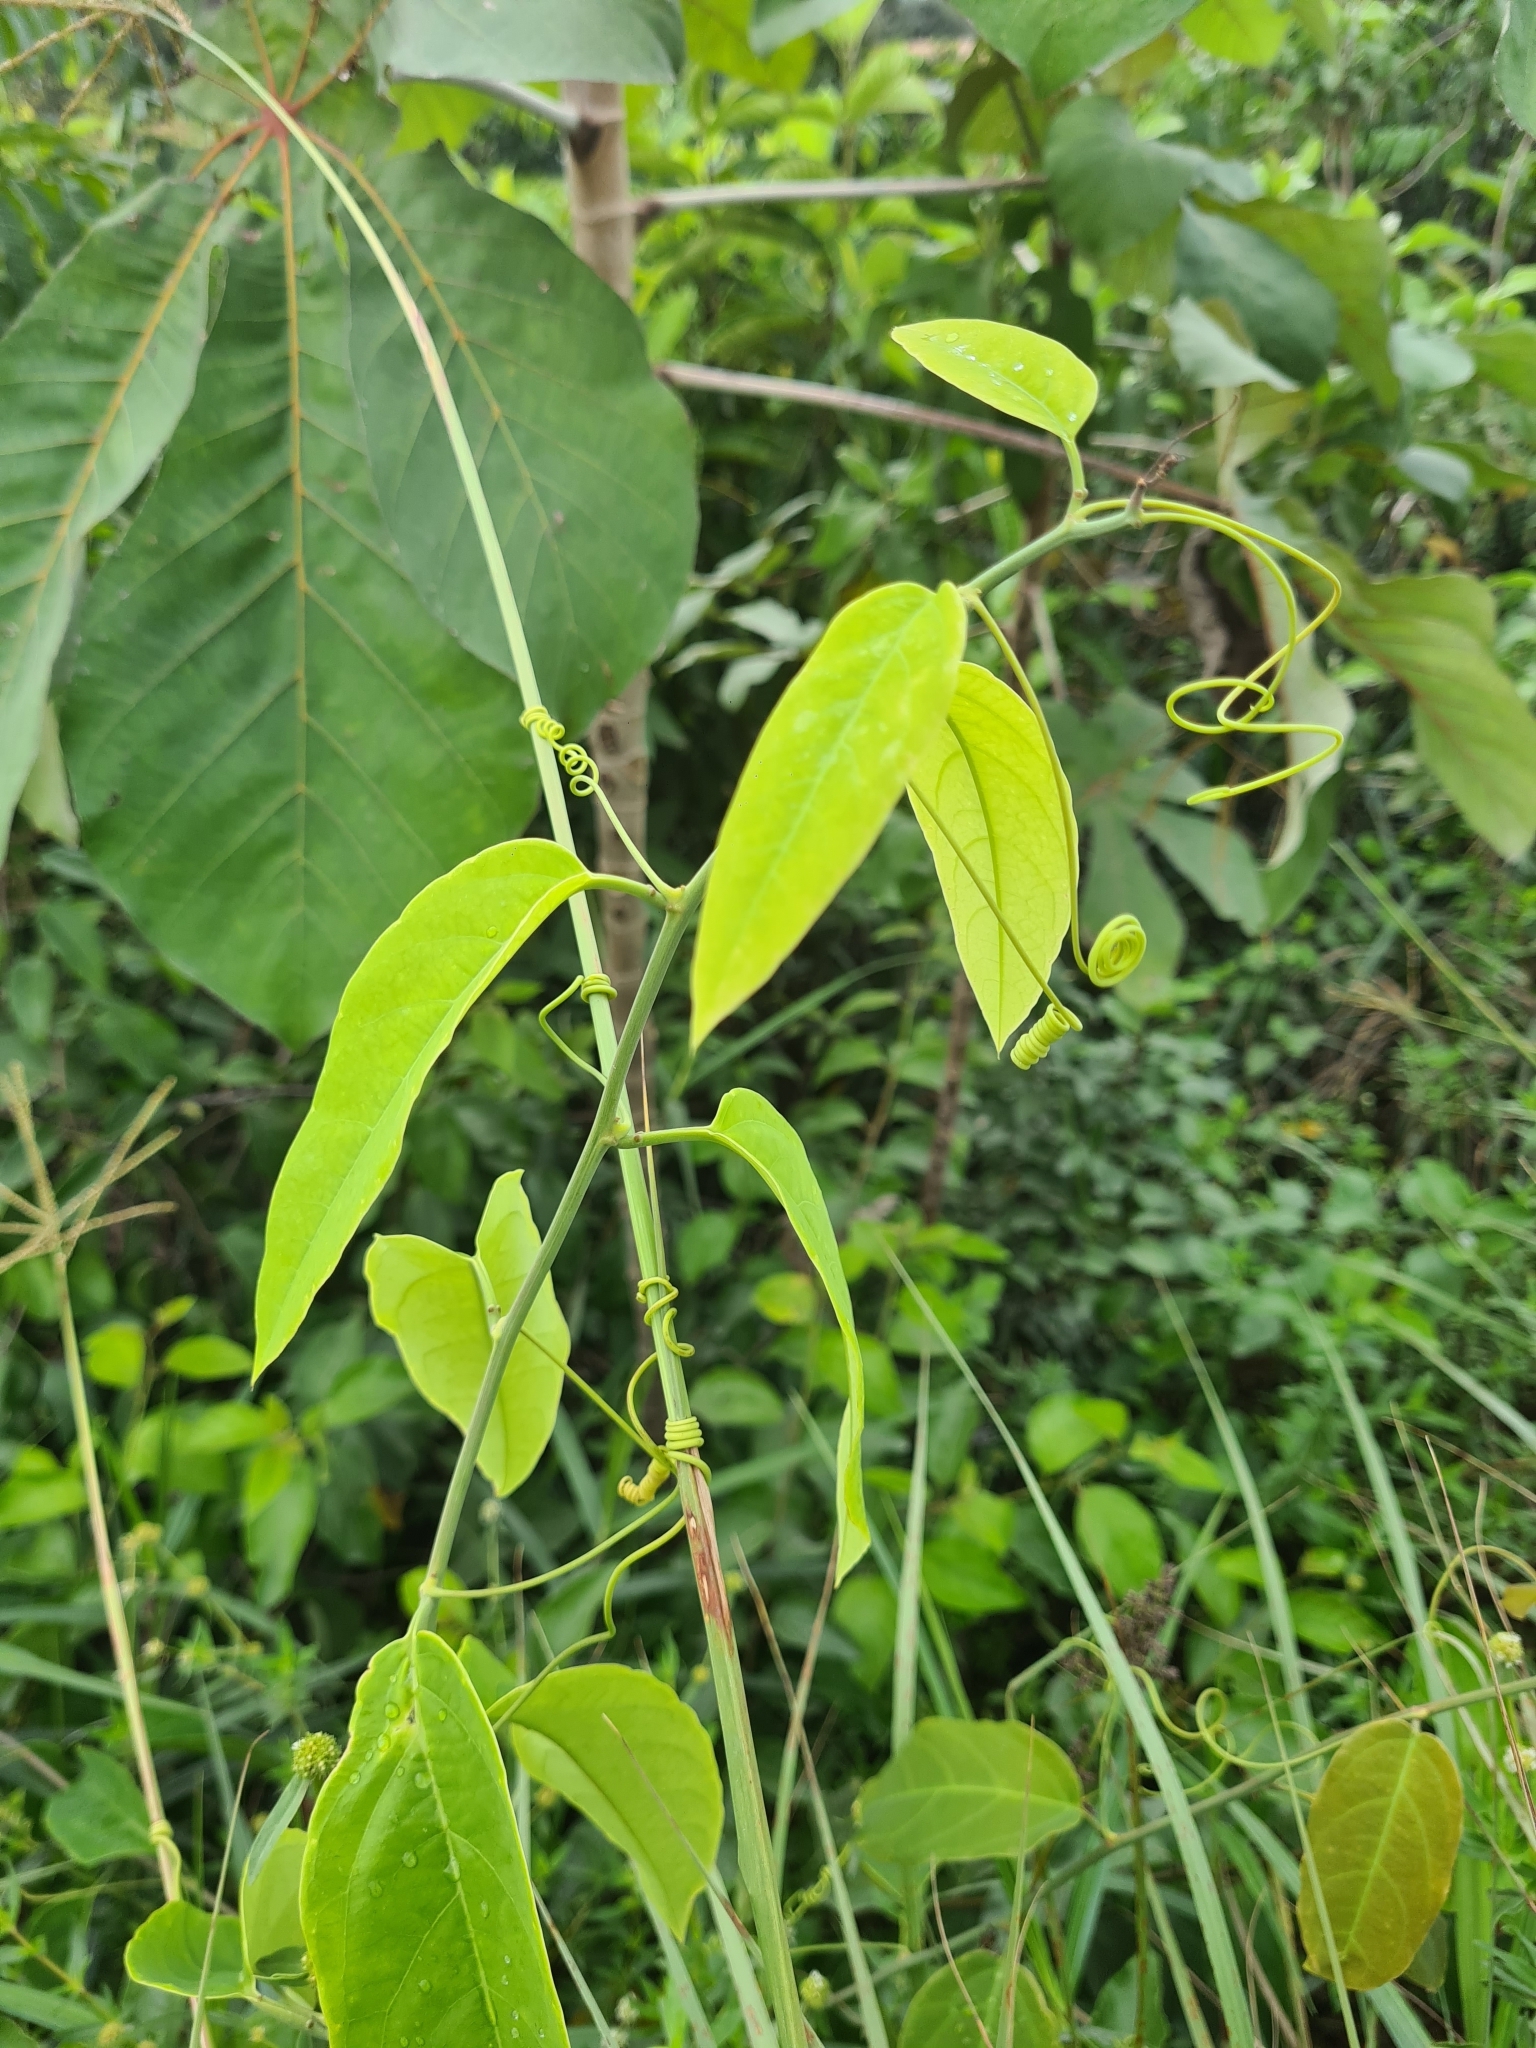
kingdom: Plantae
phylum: Tracheophyta
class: Magnoliopsida
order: Malpighiales
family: Passifloraceae
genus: Passiflora
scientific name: Passiflora glandulosa
